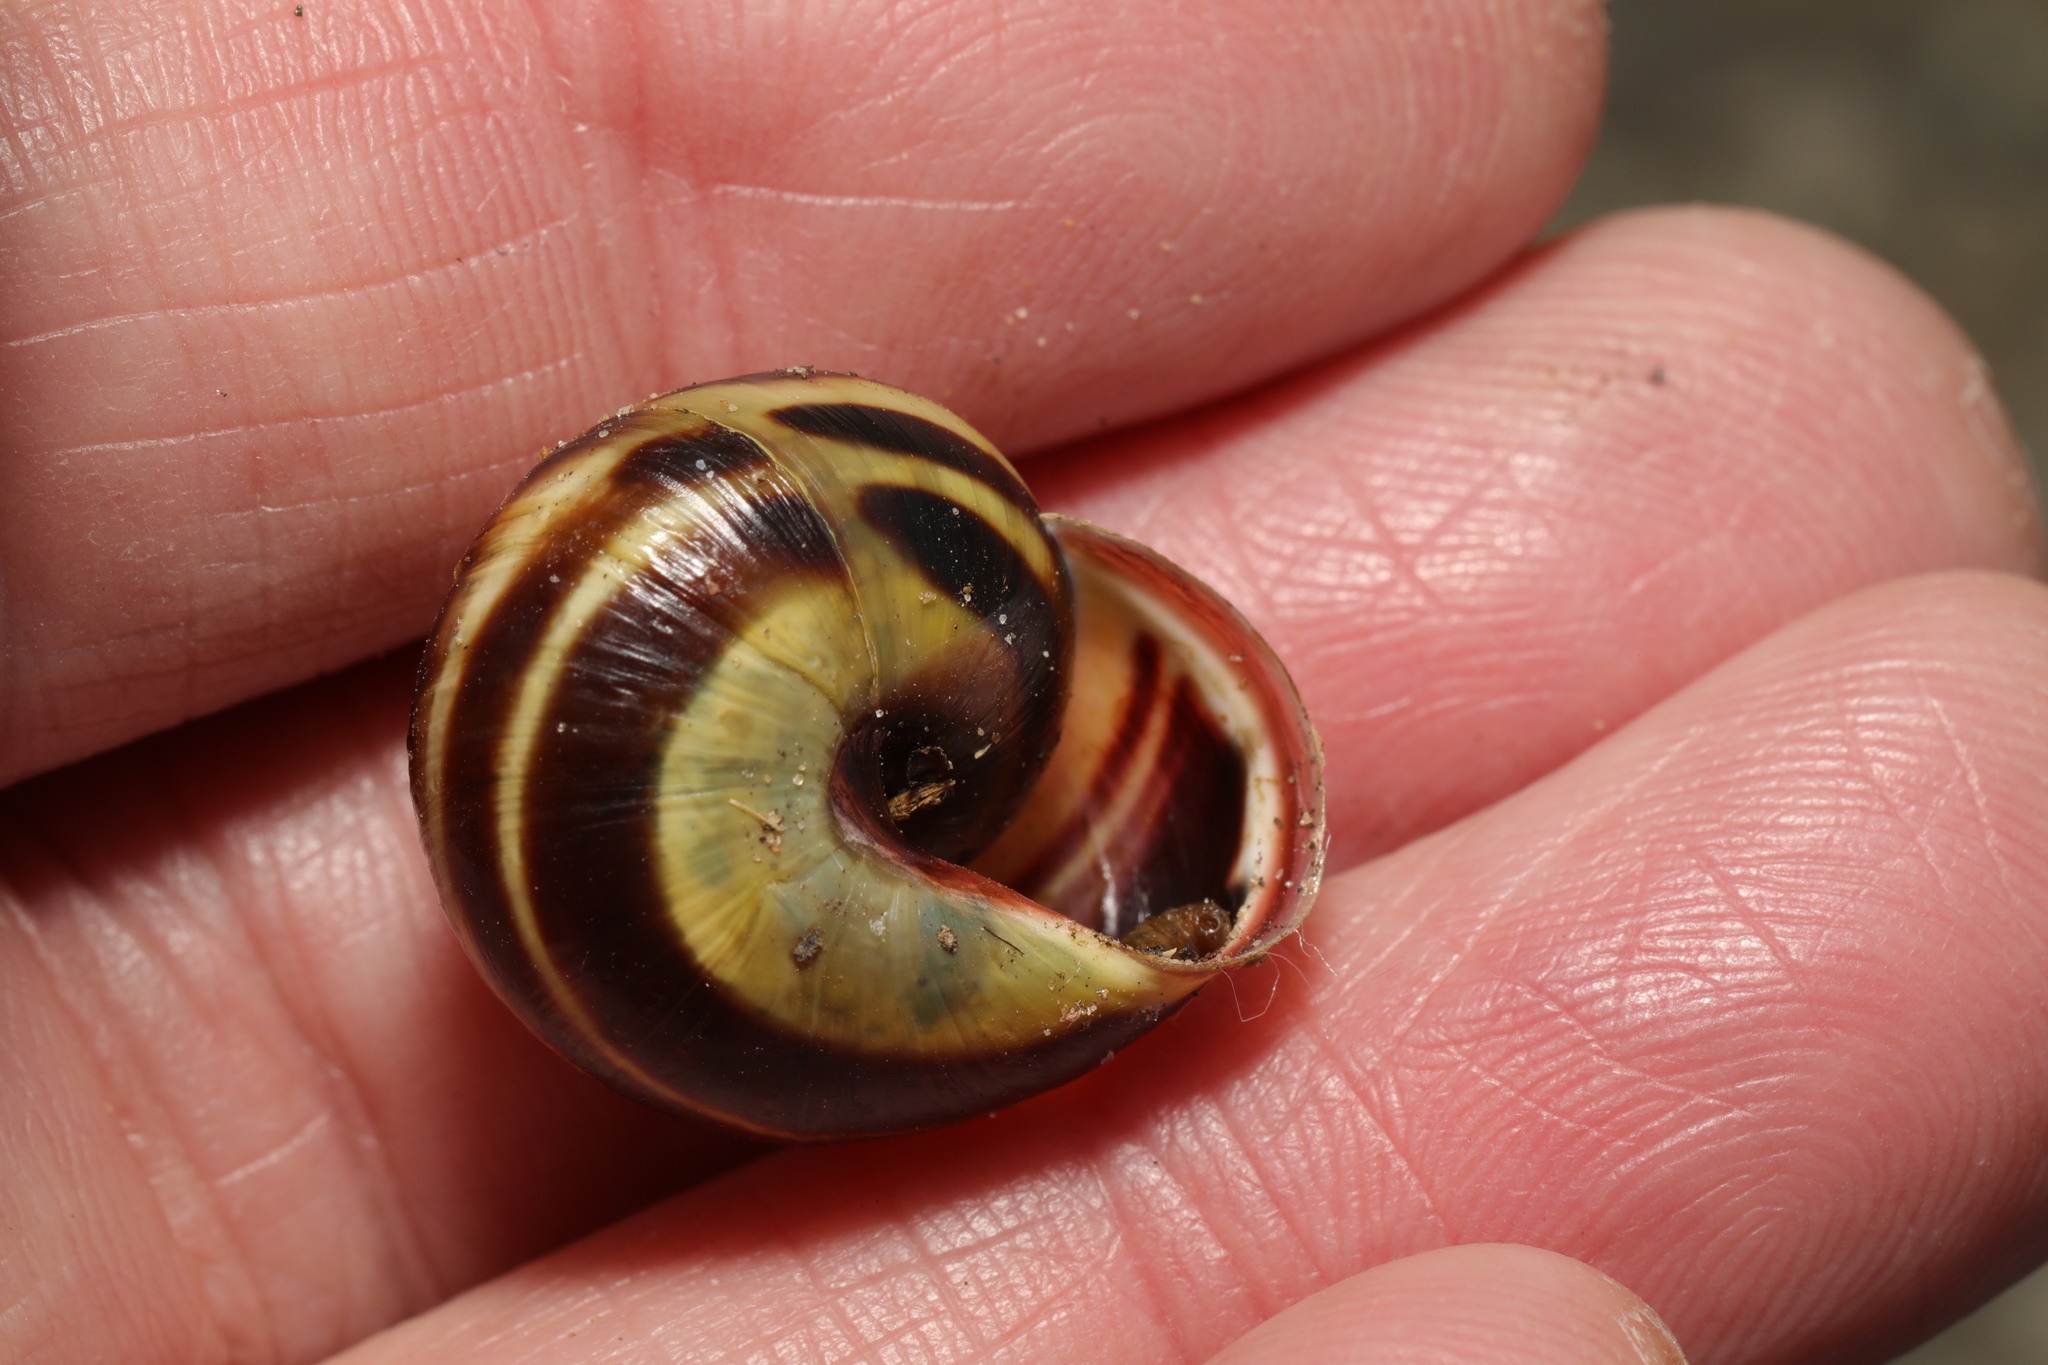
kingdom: Animalia
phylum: Mollusca
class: Gastropoda
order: Stylommatophora
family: Helicidae
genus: Cepaea
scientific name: Cepaea nemoralis
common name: Grovesnail
